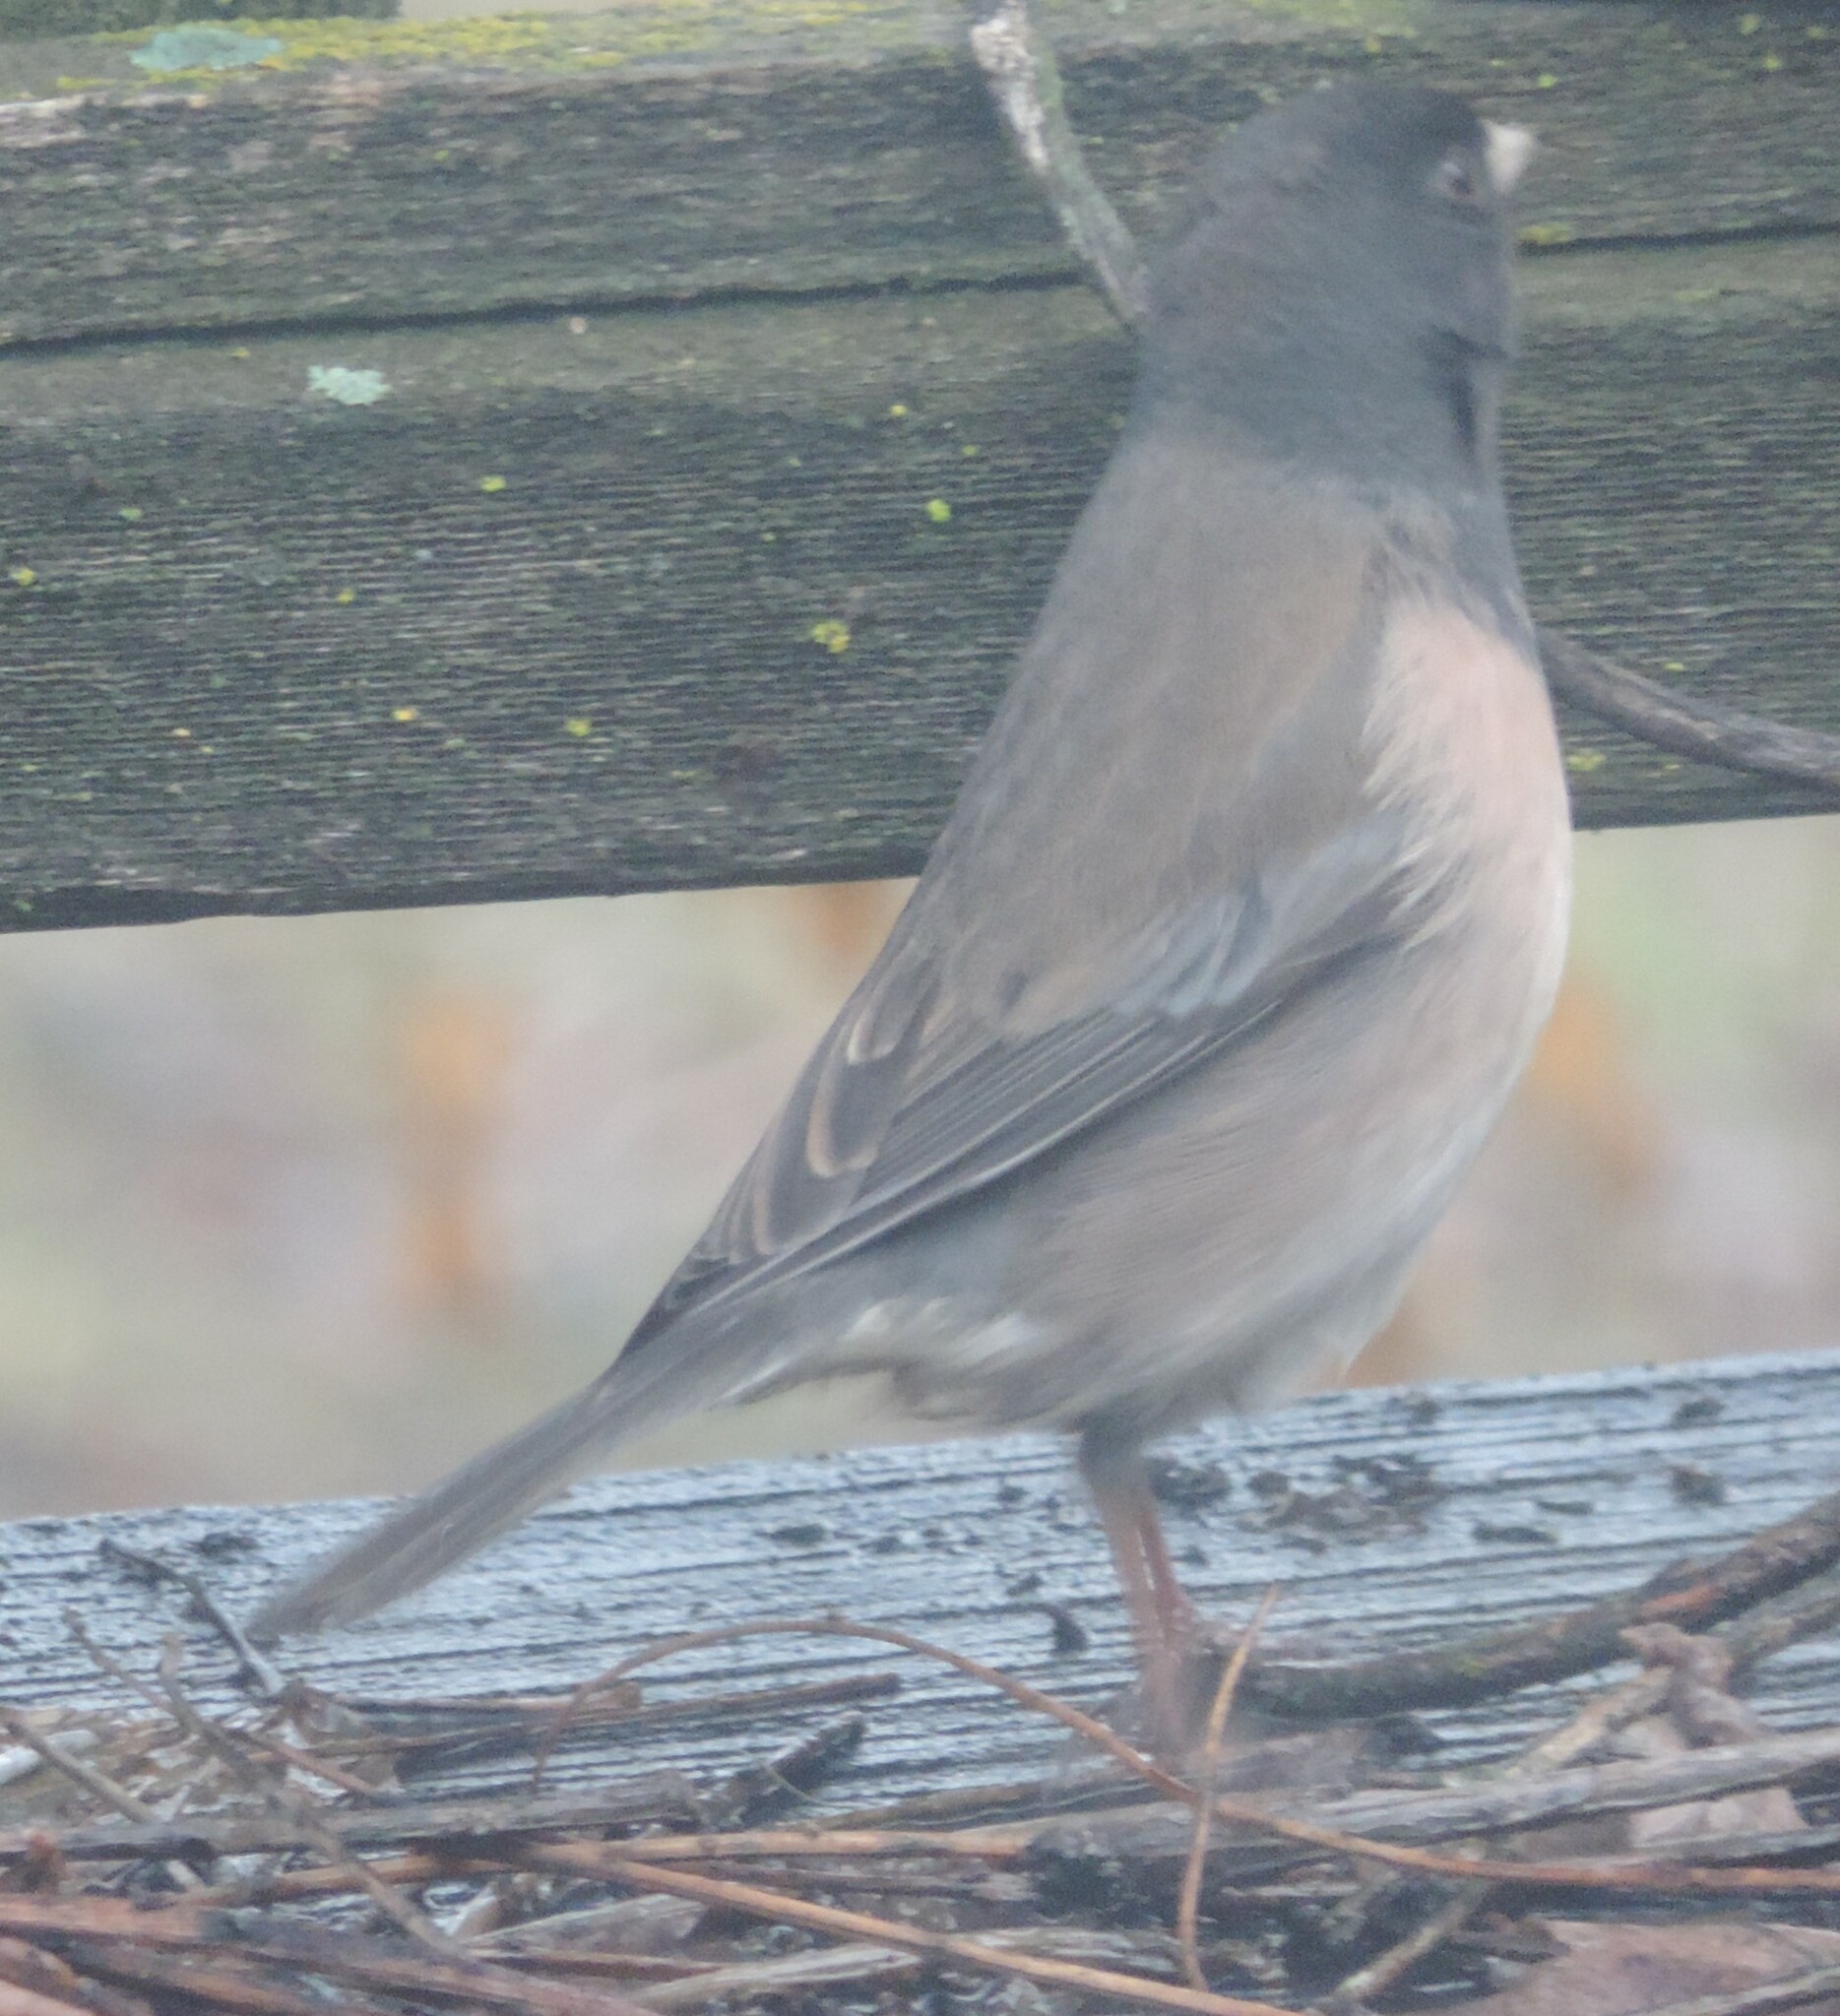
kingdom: Animalia
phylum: Chordata
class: Aves
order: Passeriformes
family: Passerellidae
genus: Junco
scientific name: Junco hyemalis
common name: Dark-eyed junco
